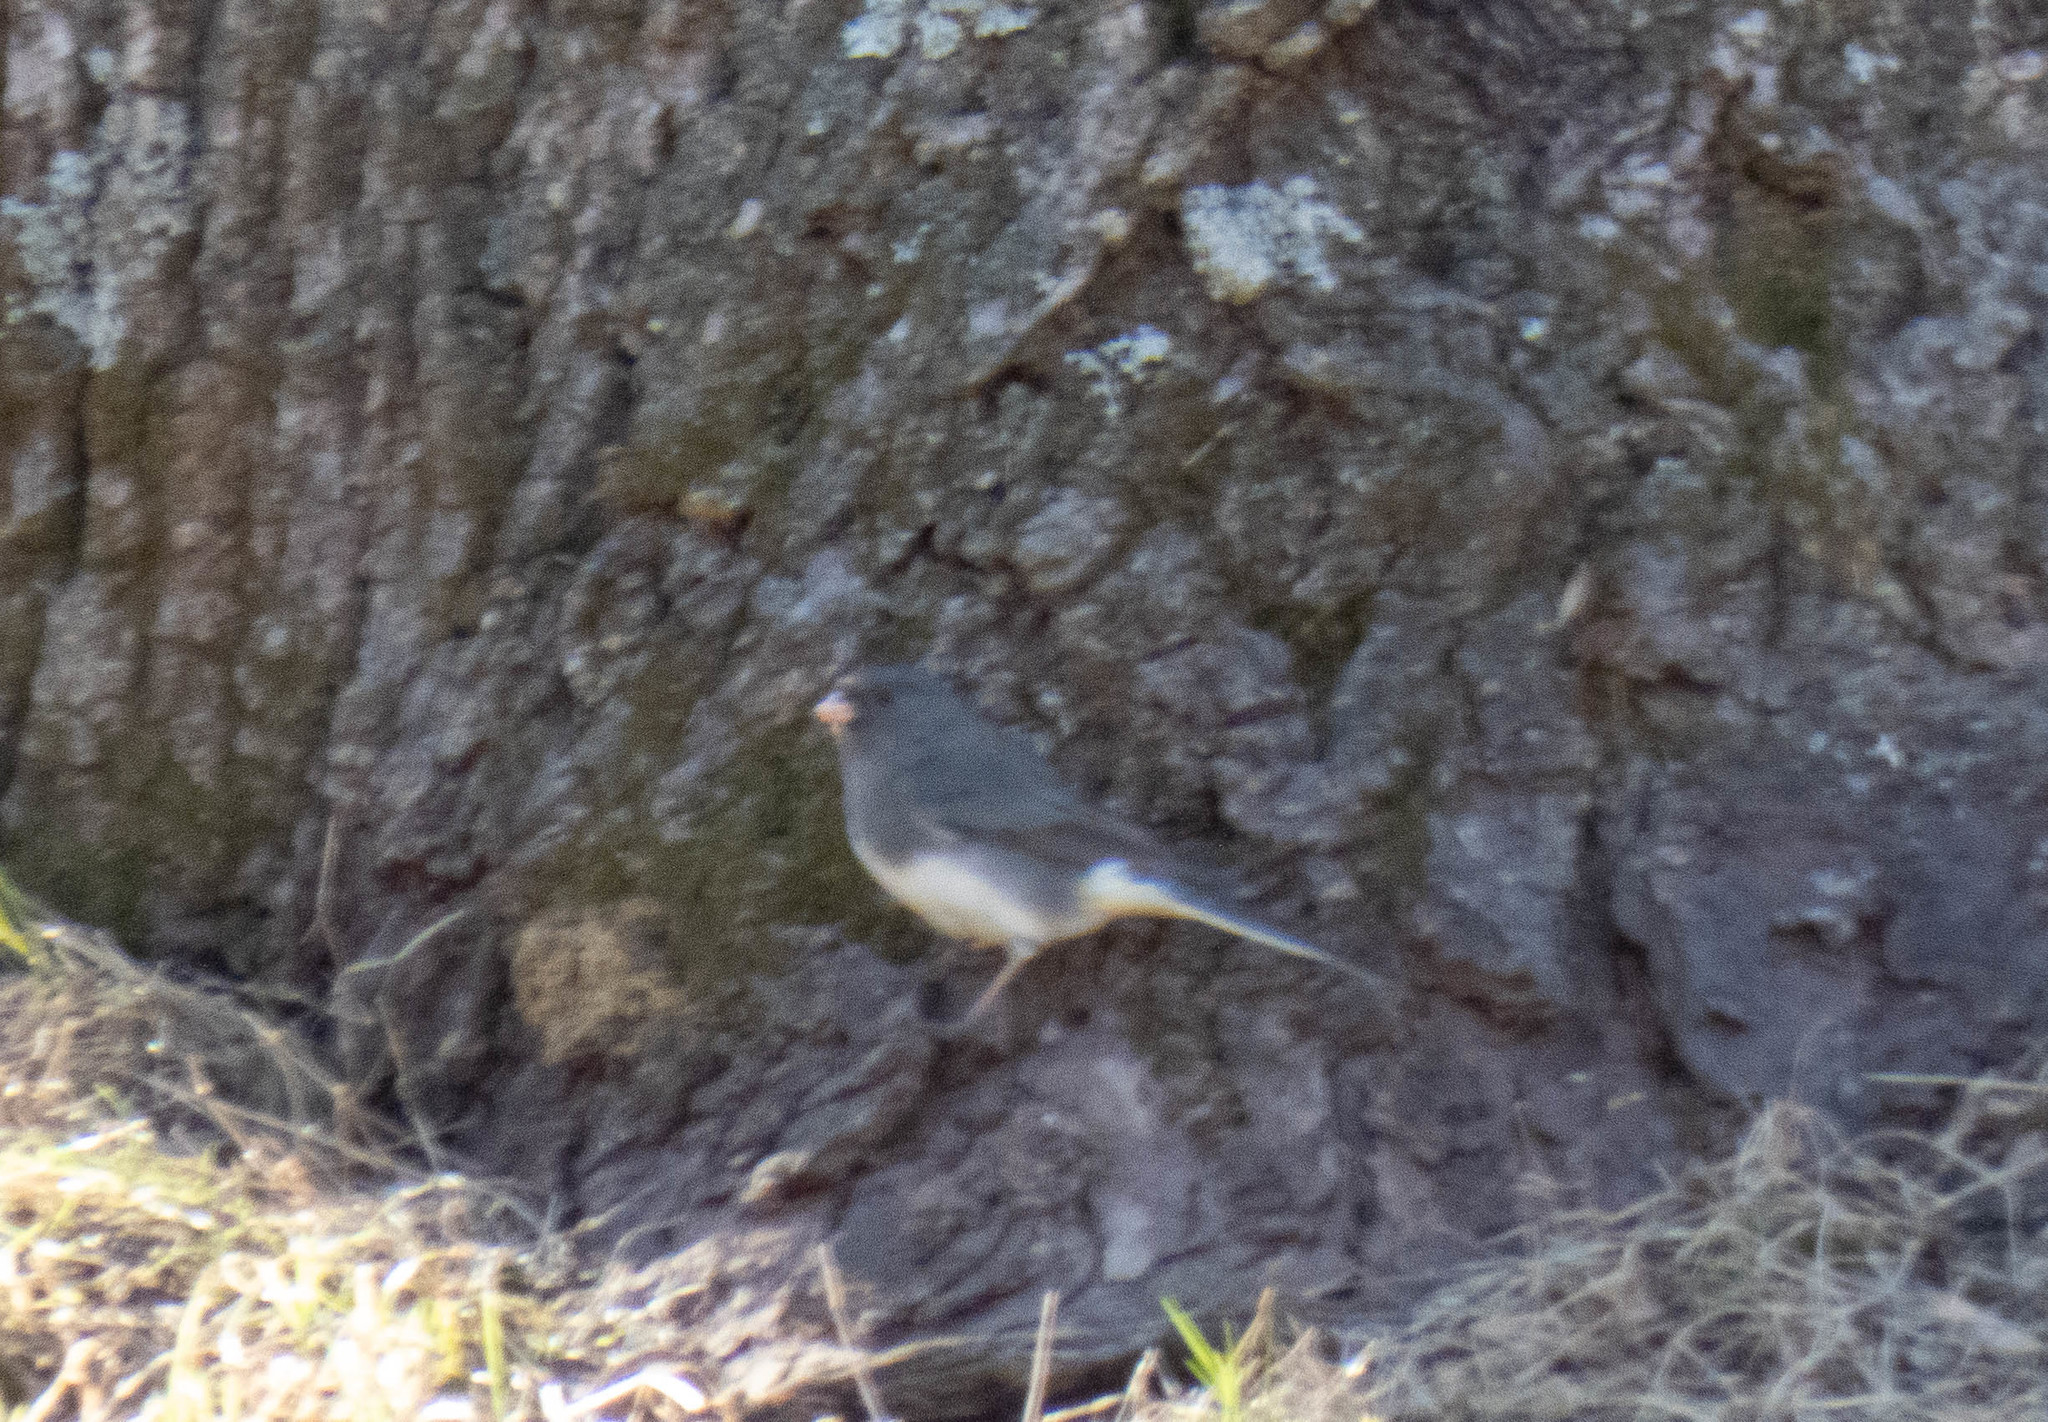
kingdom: Animalia
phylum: Chordata
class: Aves
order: Passeriformes
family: Passerellidae
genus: Junco
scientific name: Junco hyemalis
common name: Dark-eyed junco
